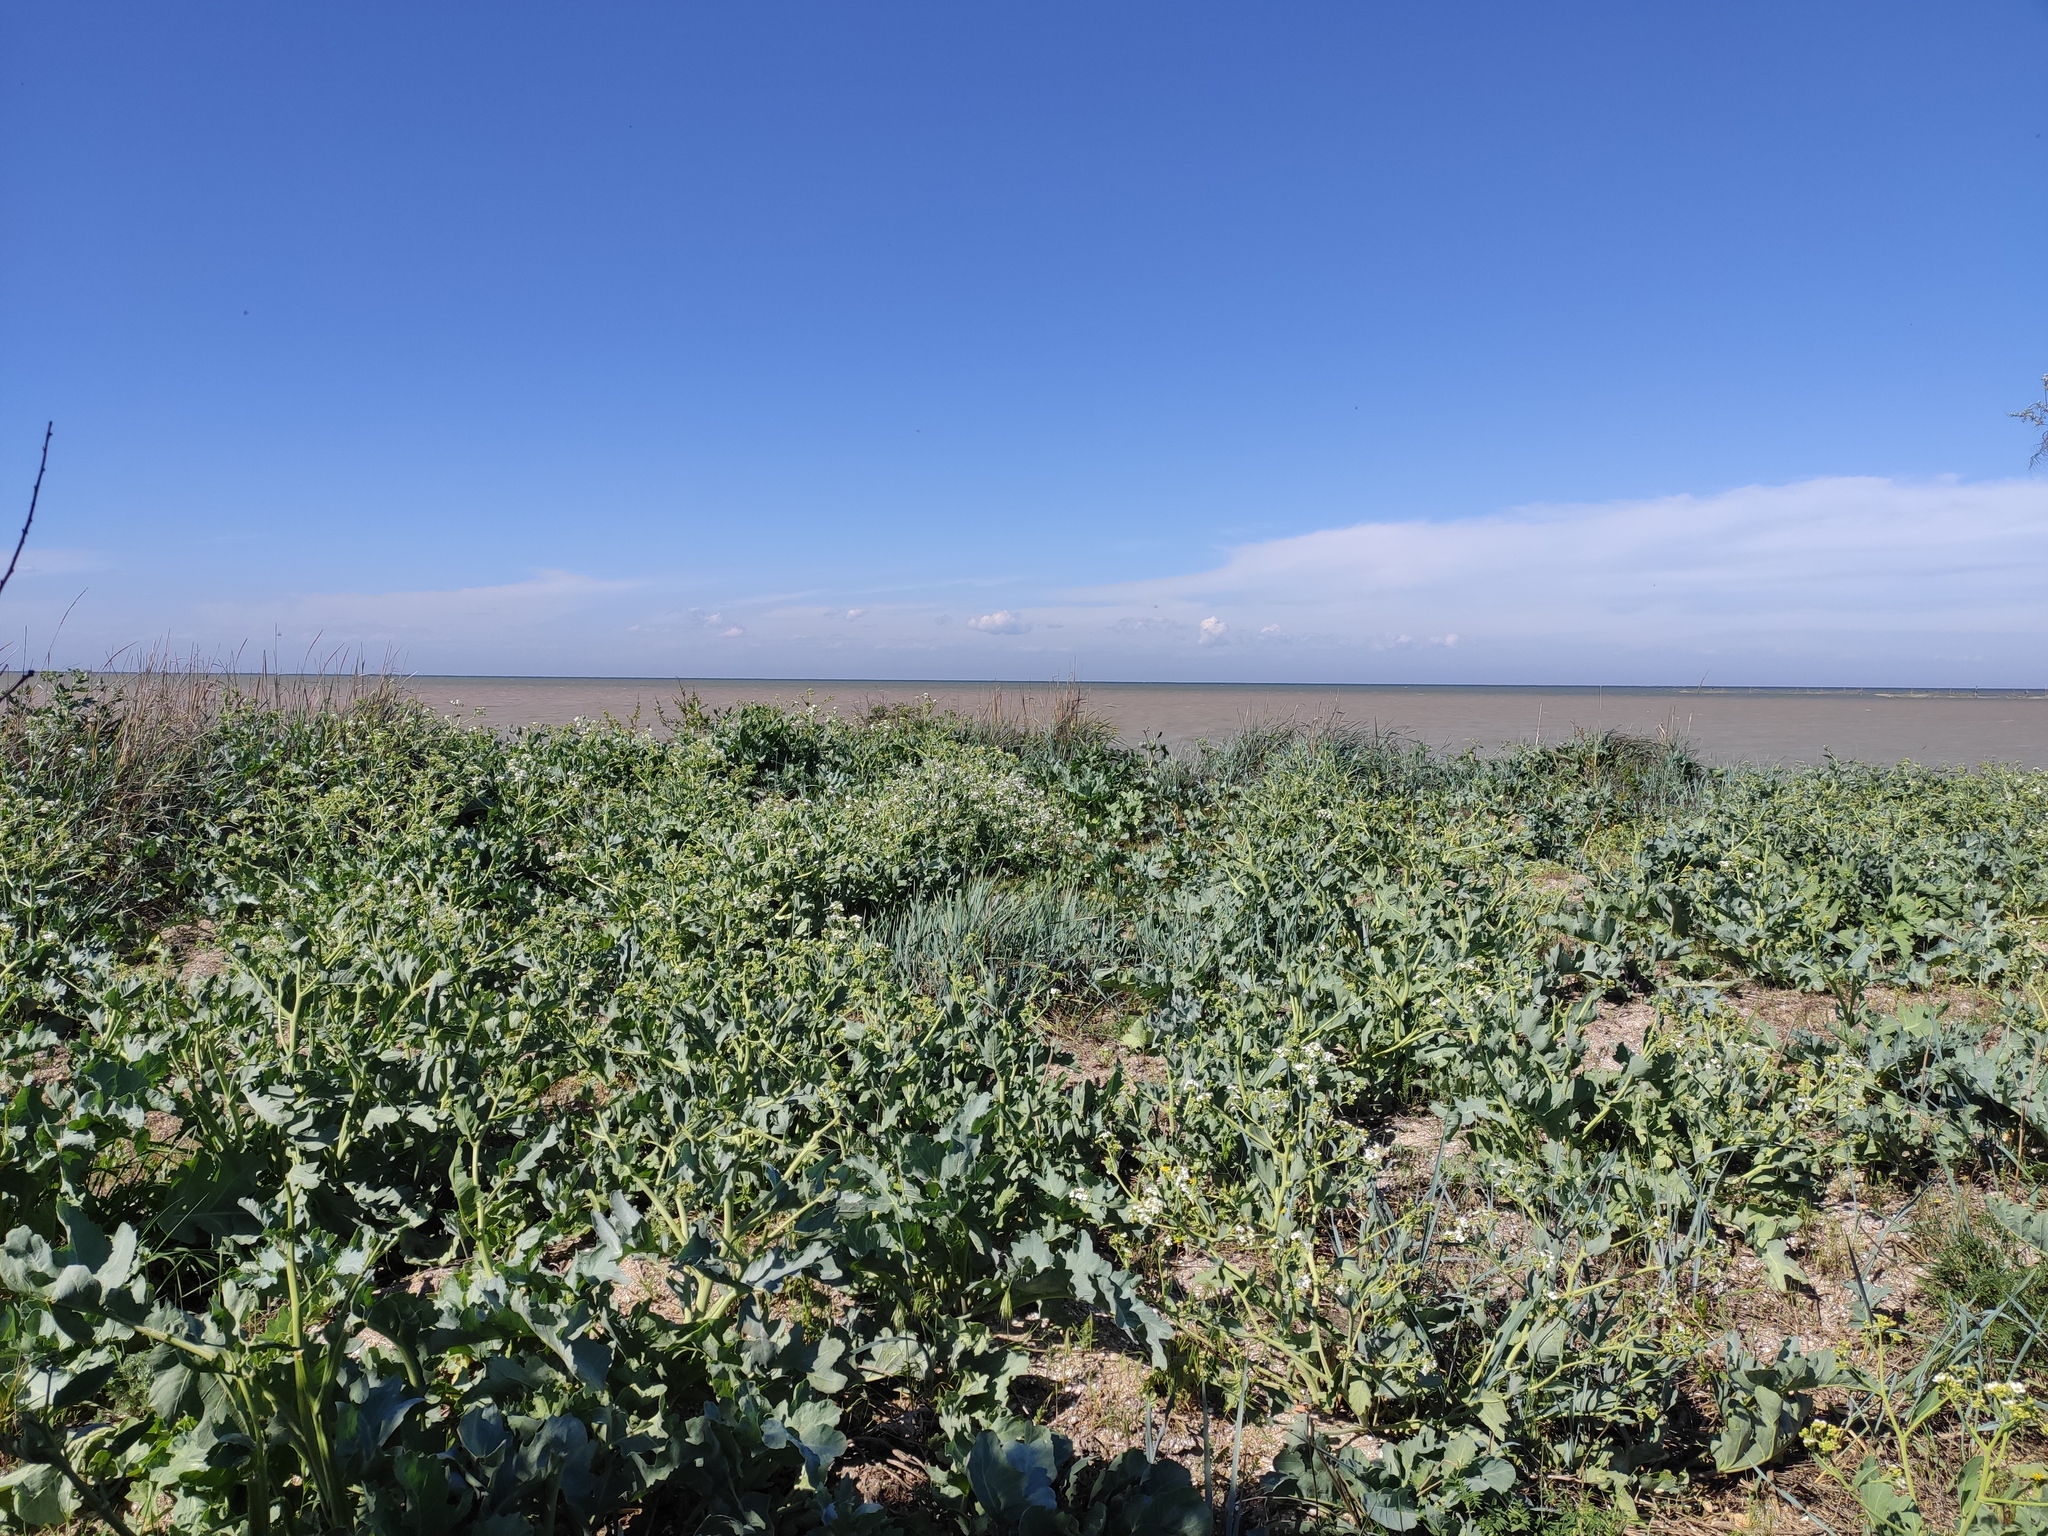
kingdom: Plantae
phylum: Tracheophyta
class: Magnoliopsida
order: Brassicales
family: Brassicaceae
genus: Crambe
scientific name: Crambe maritima
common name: Sea-kale
